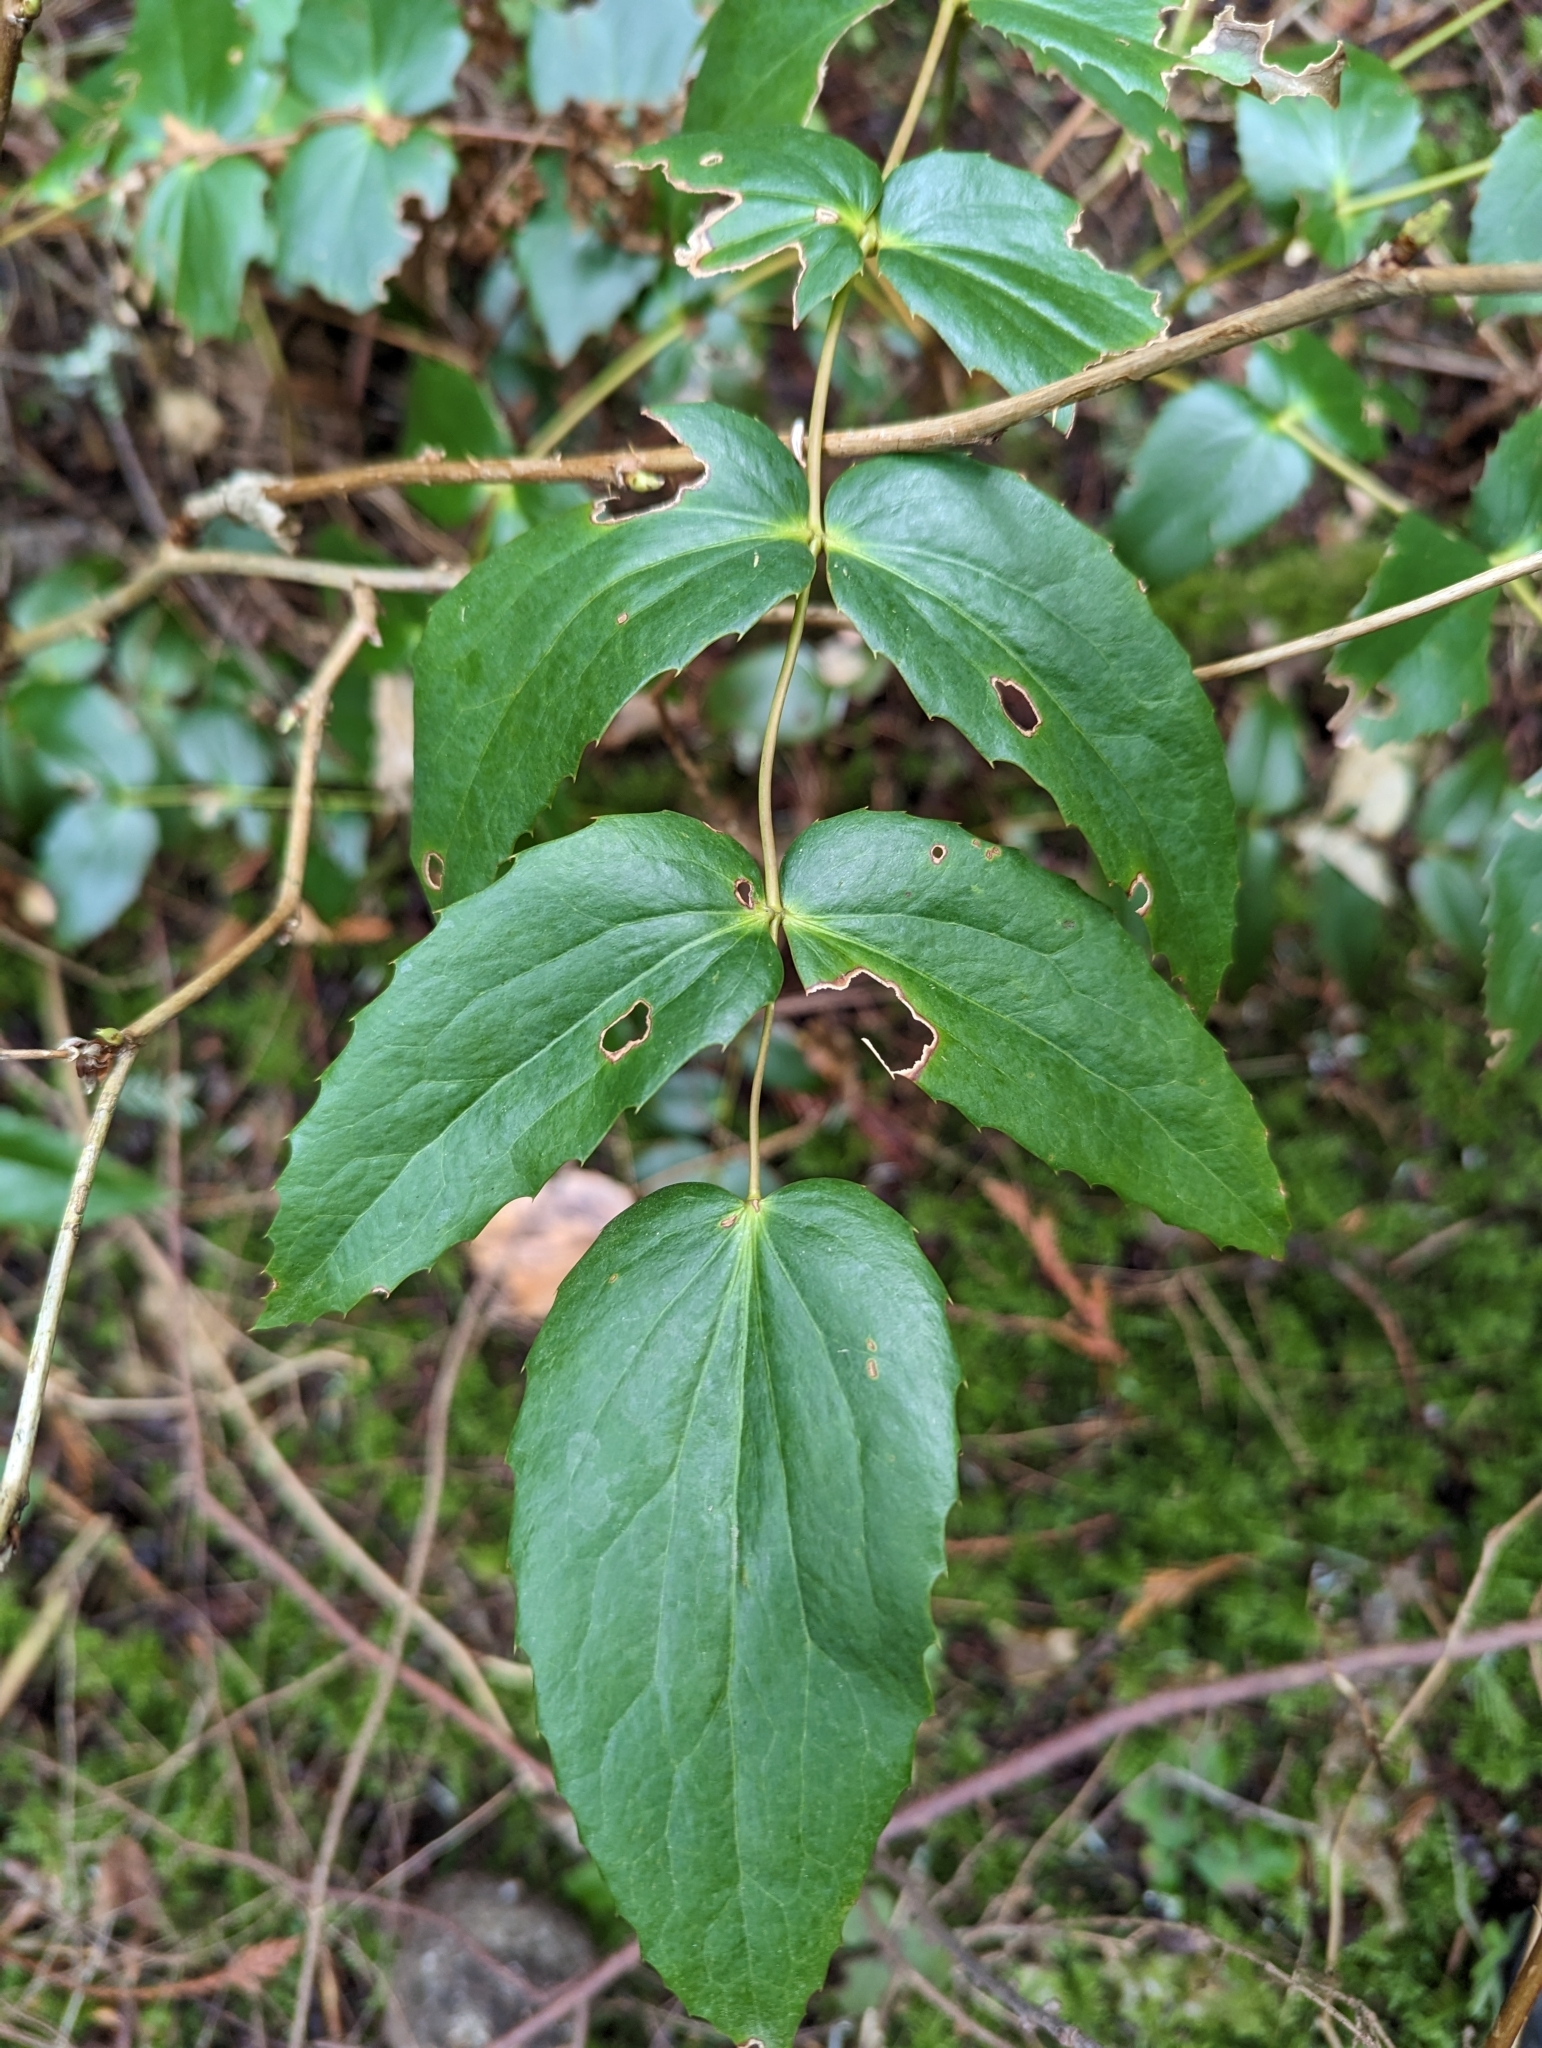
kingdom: Plantae
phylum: Tracheophyta
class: Magnoliopsida
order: Ranunculales
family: Berberidaceae
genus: Mahonia
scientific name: Mahonia nervosa
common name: Cascade oregon-grape
